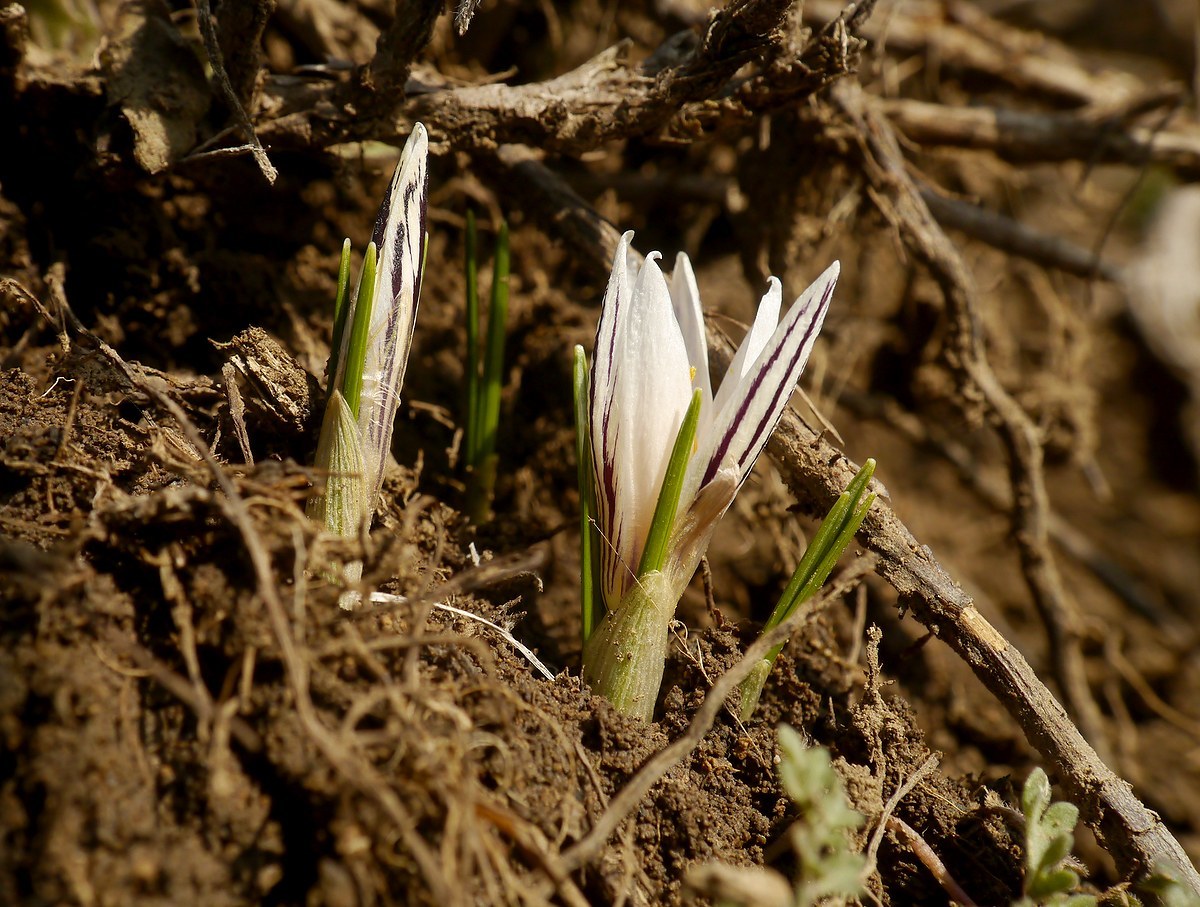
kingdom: Plantae
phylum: Tracheophyta
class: Liliopsida
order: Asparagales
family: Iridaceae
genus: Crocus
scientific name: Crocus reticulatus
